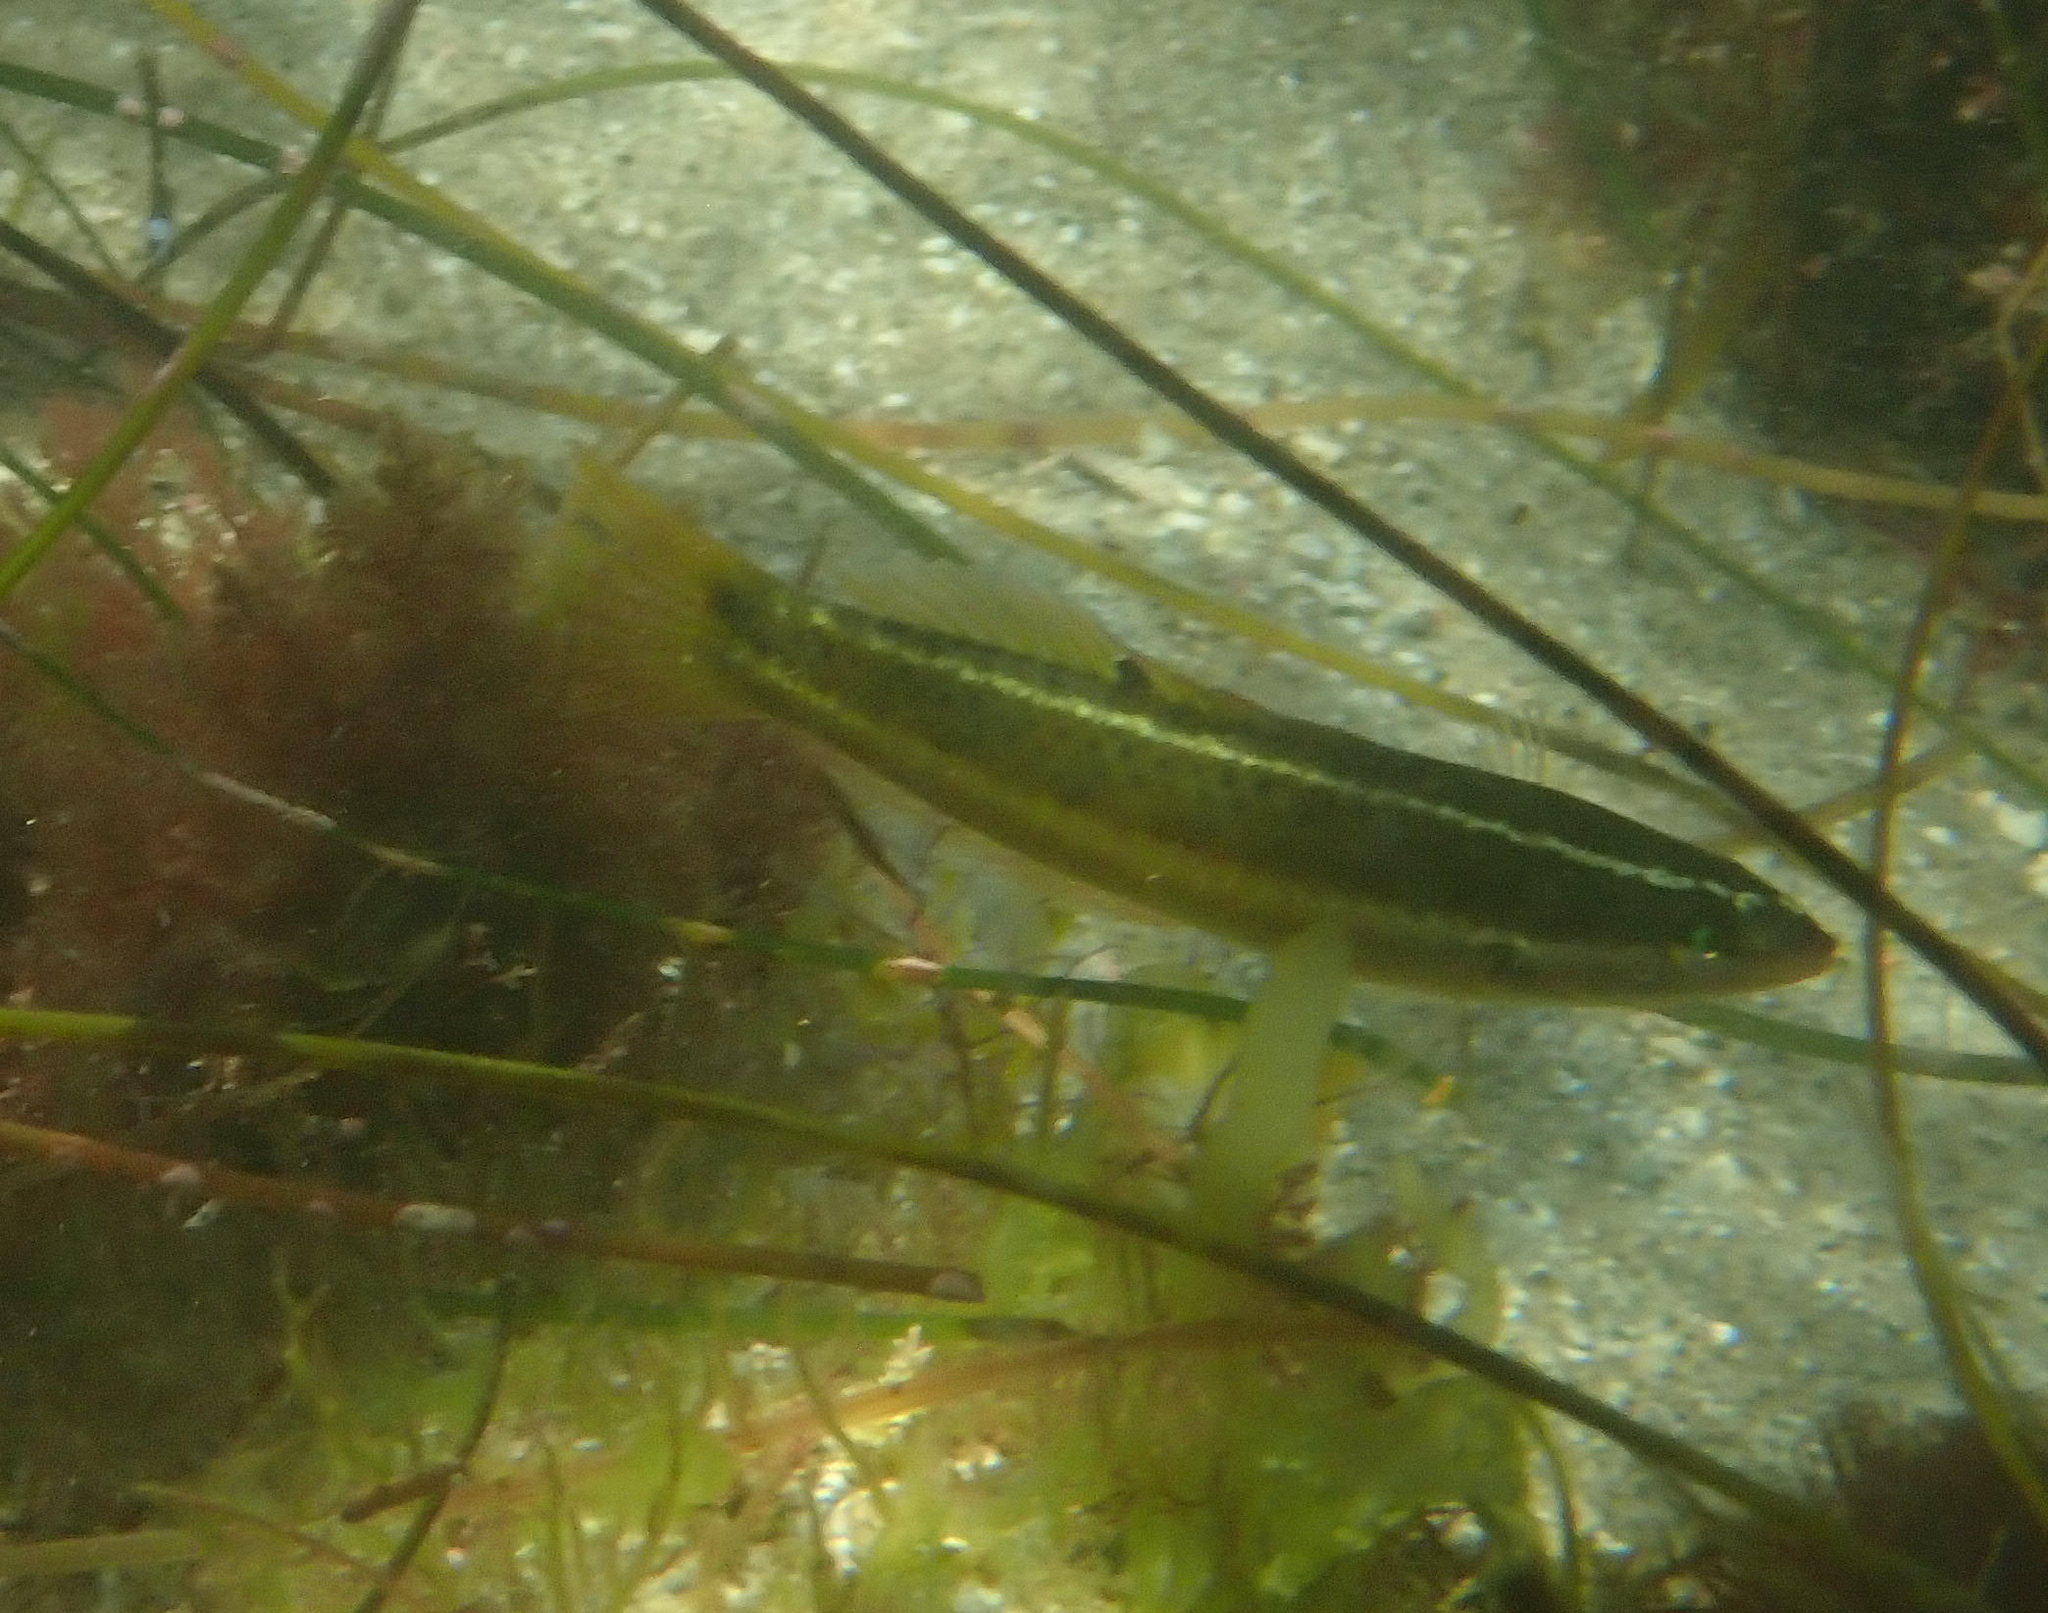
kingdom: Animalia
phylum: Chordata
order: Perciformes
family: Labridae
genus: Halichoeres
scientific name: Halichoeres semicinctus
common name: Rock wrasse
